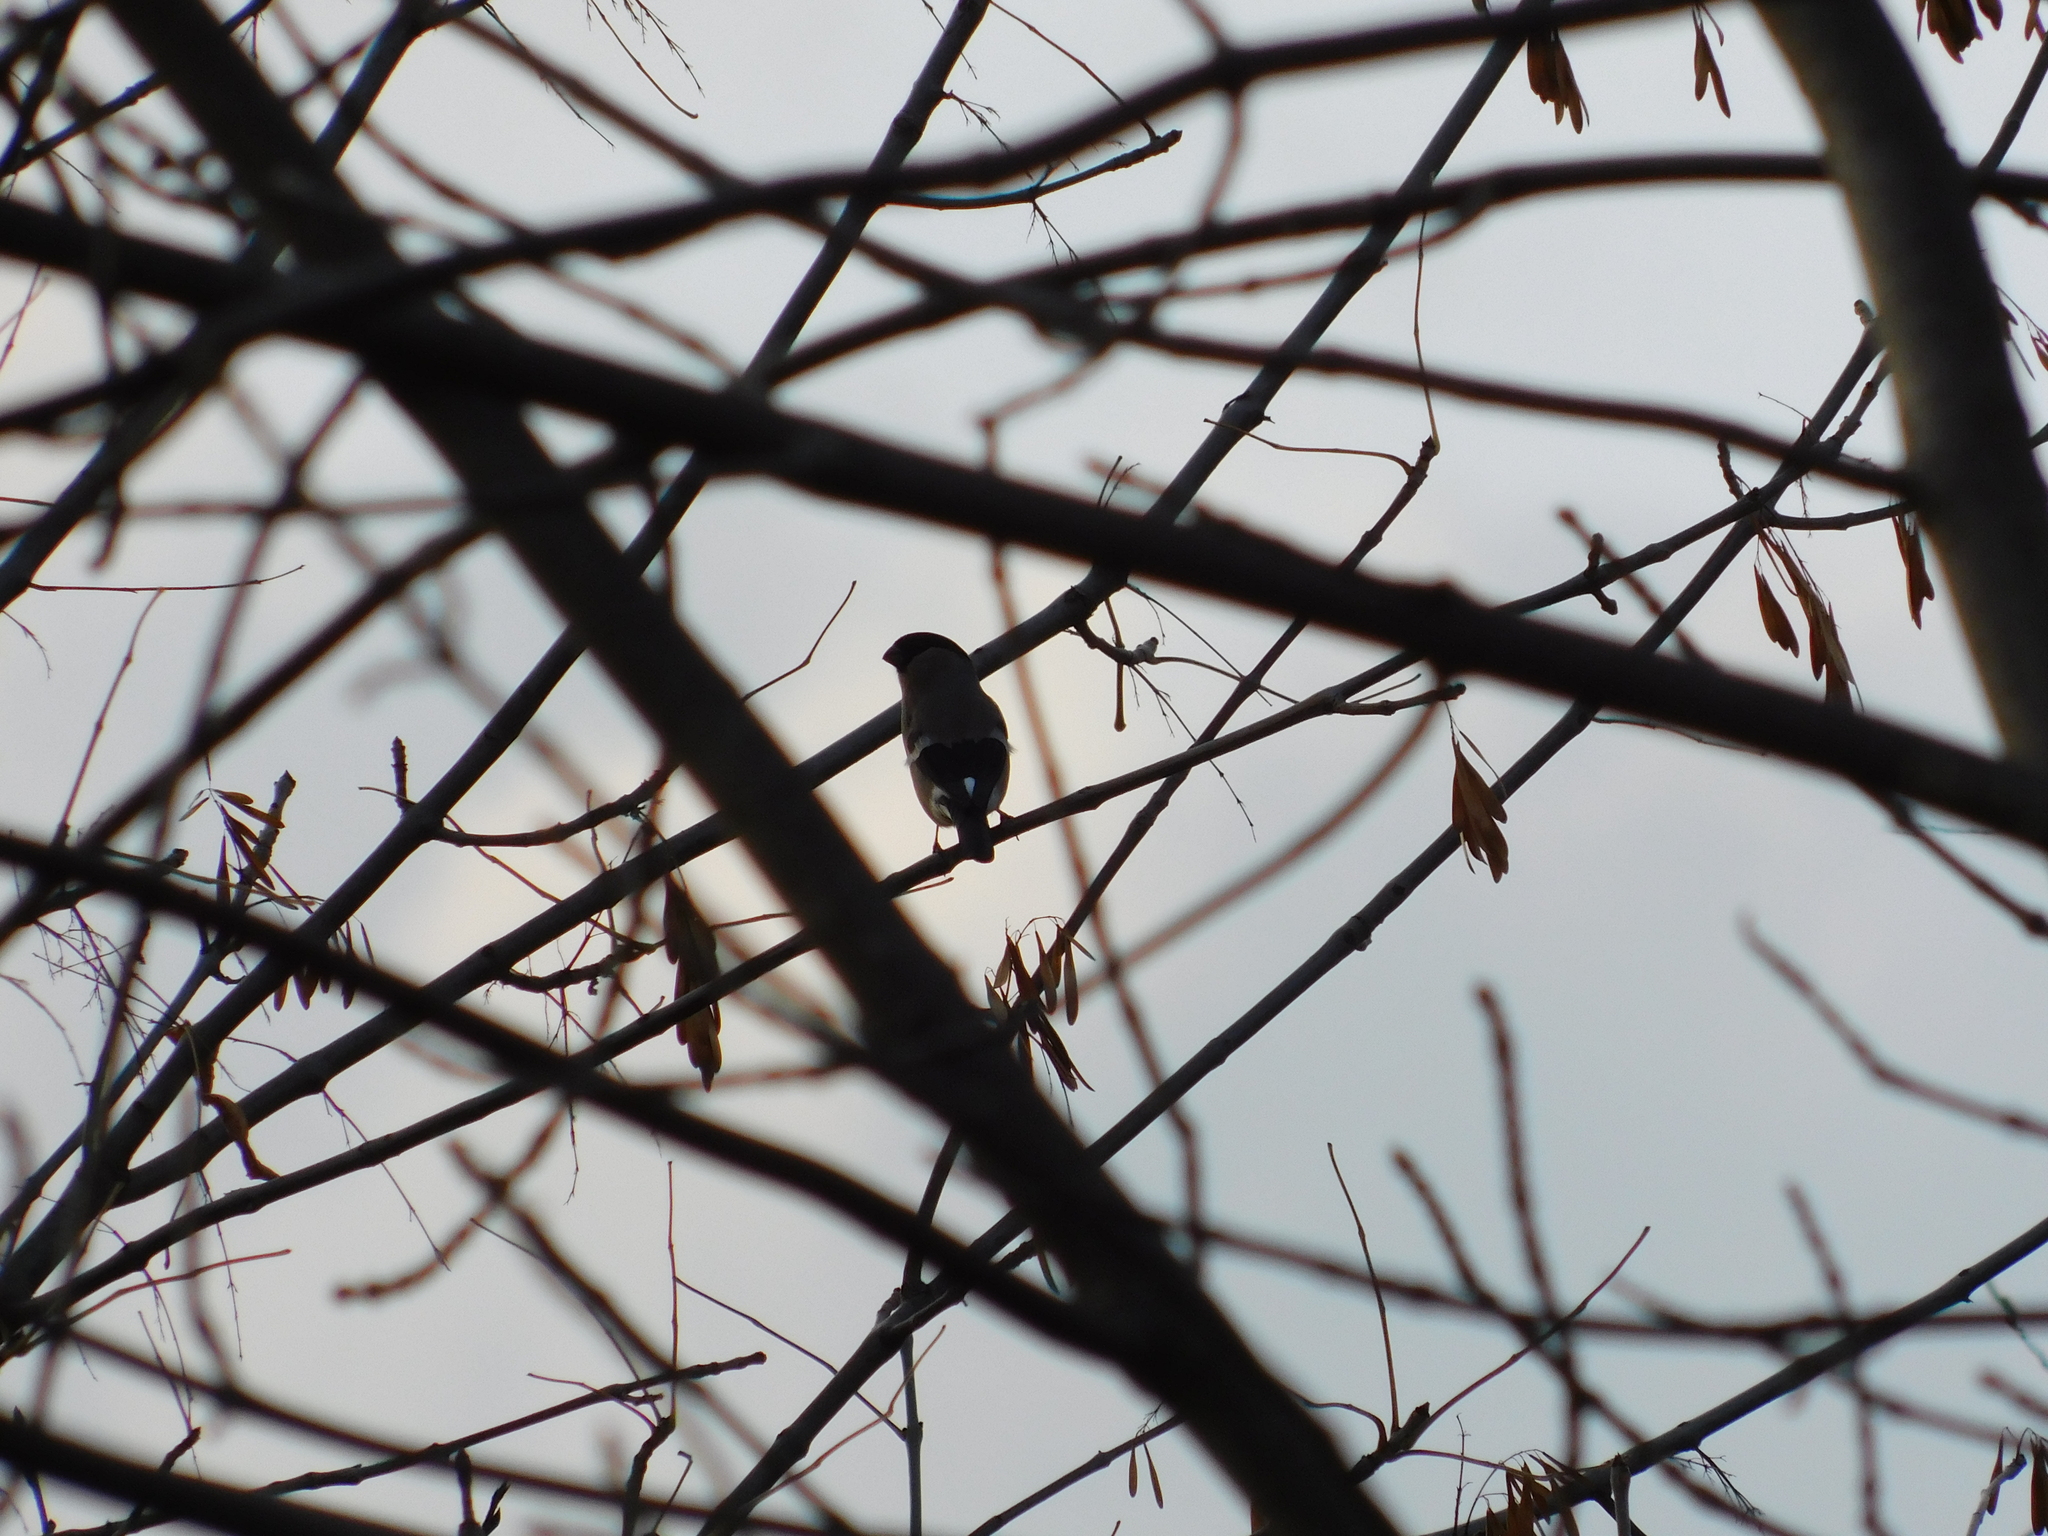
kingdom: Animalia
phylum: Chordata
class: Aves
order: Passeriformes
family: Fringillidae
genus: Pyrrhula
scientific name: Pyrrhula pyrrhula
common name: Eurasian bullfinch
